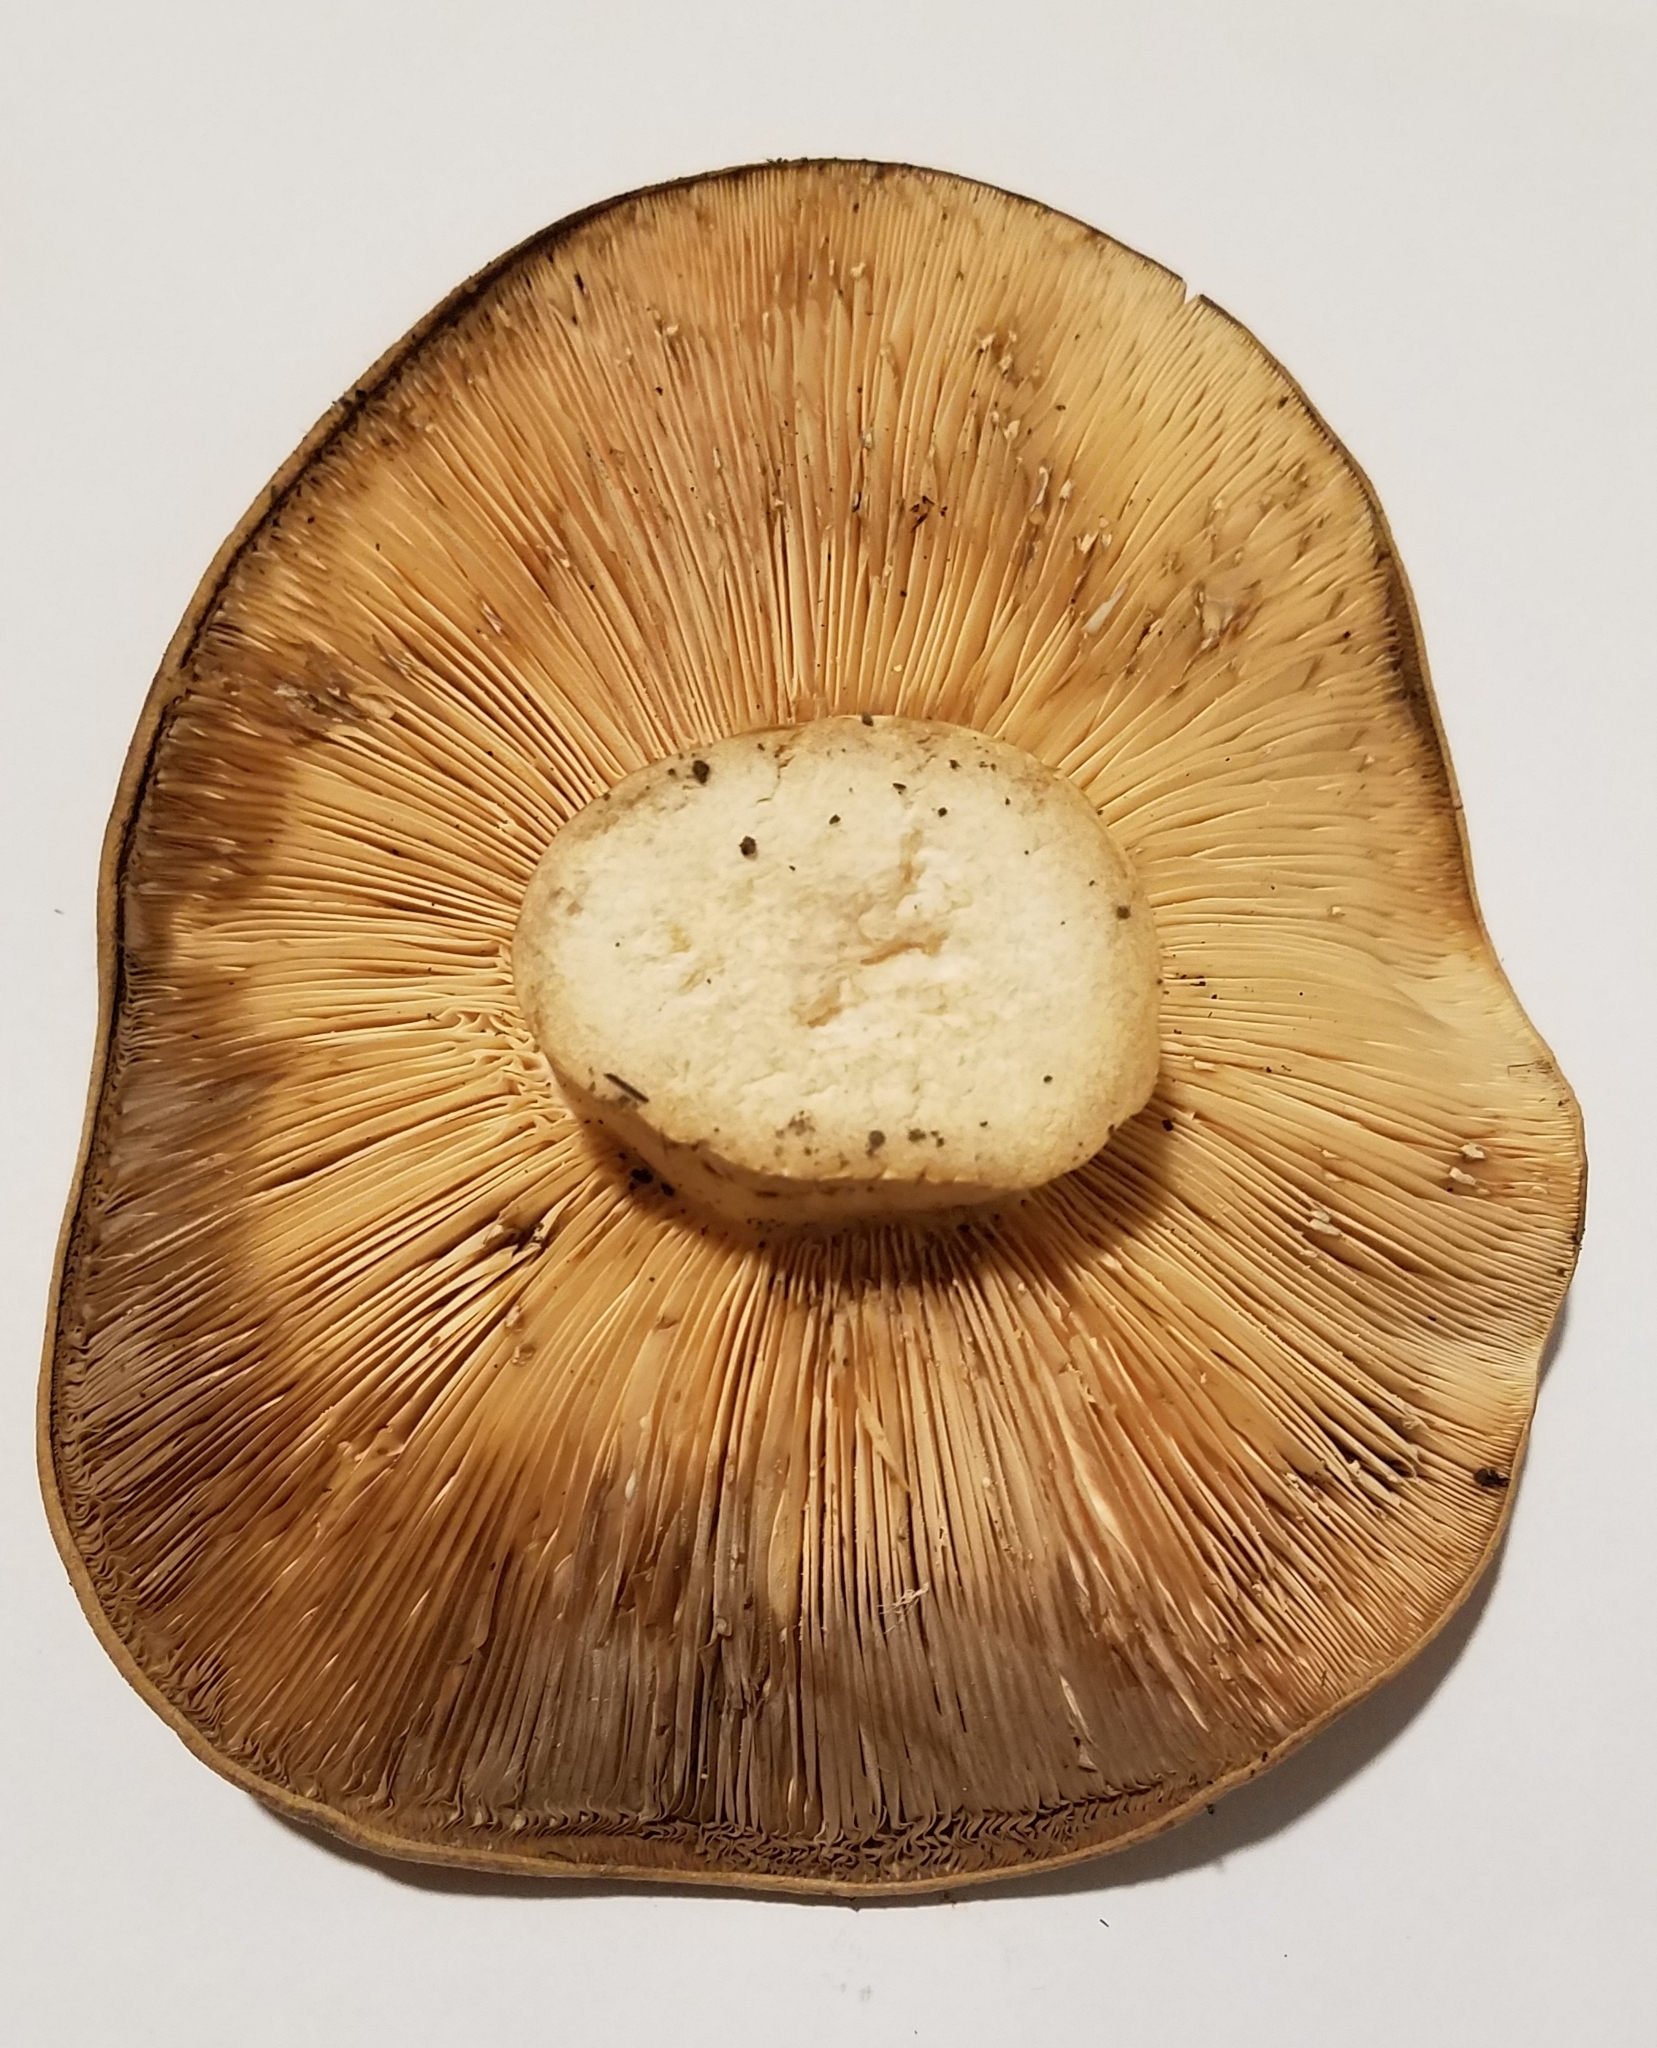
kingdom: Fungi
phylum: Basidiomycota
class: Agaricomycetes
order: Russulales
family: Russulaceae
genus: Lactarius
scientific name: Lactarius argillaceifolius
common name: Clay-gilled milkcap
